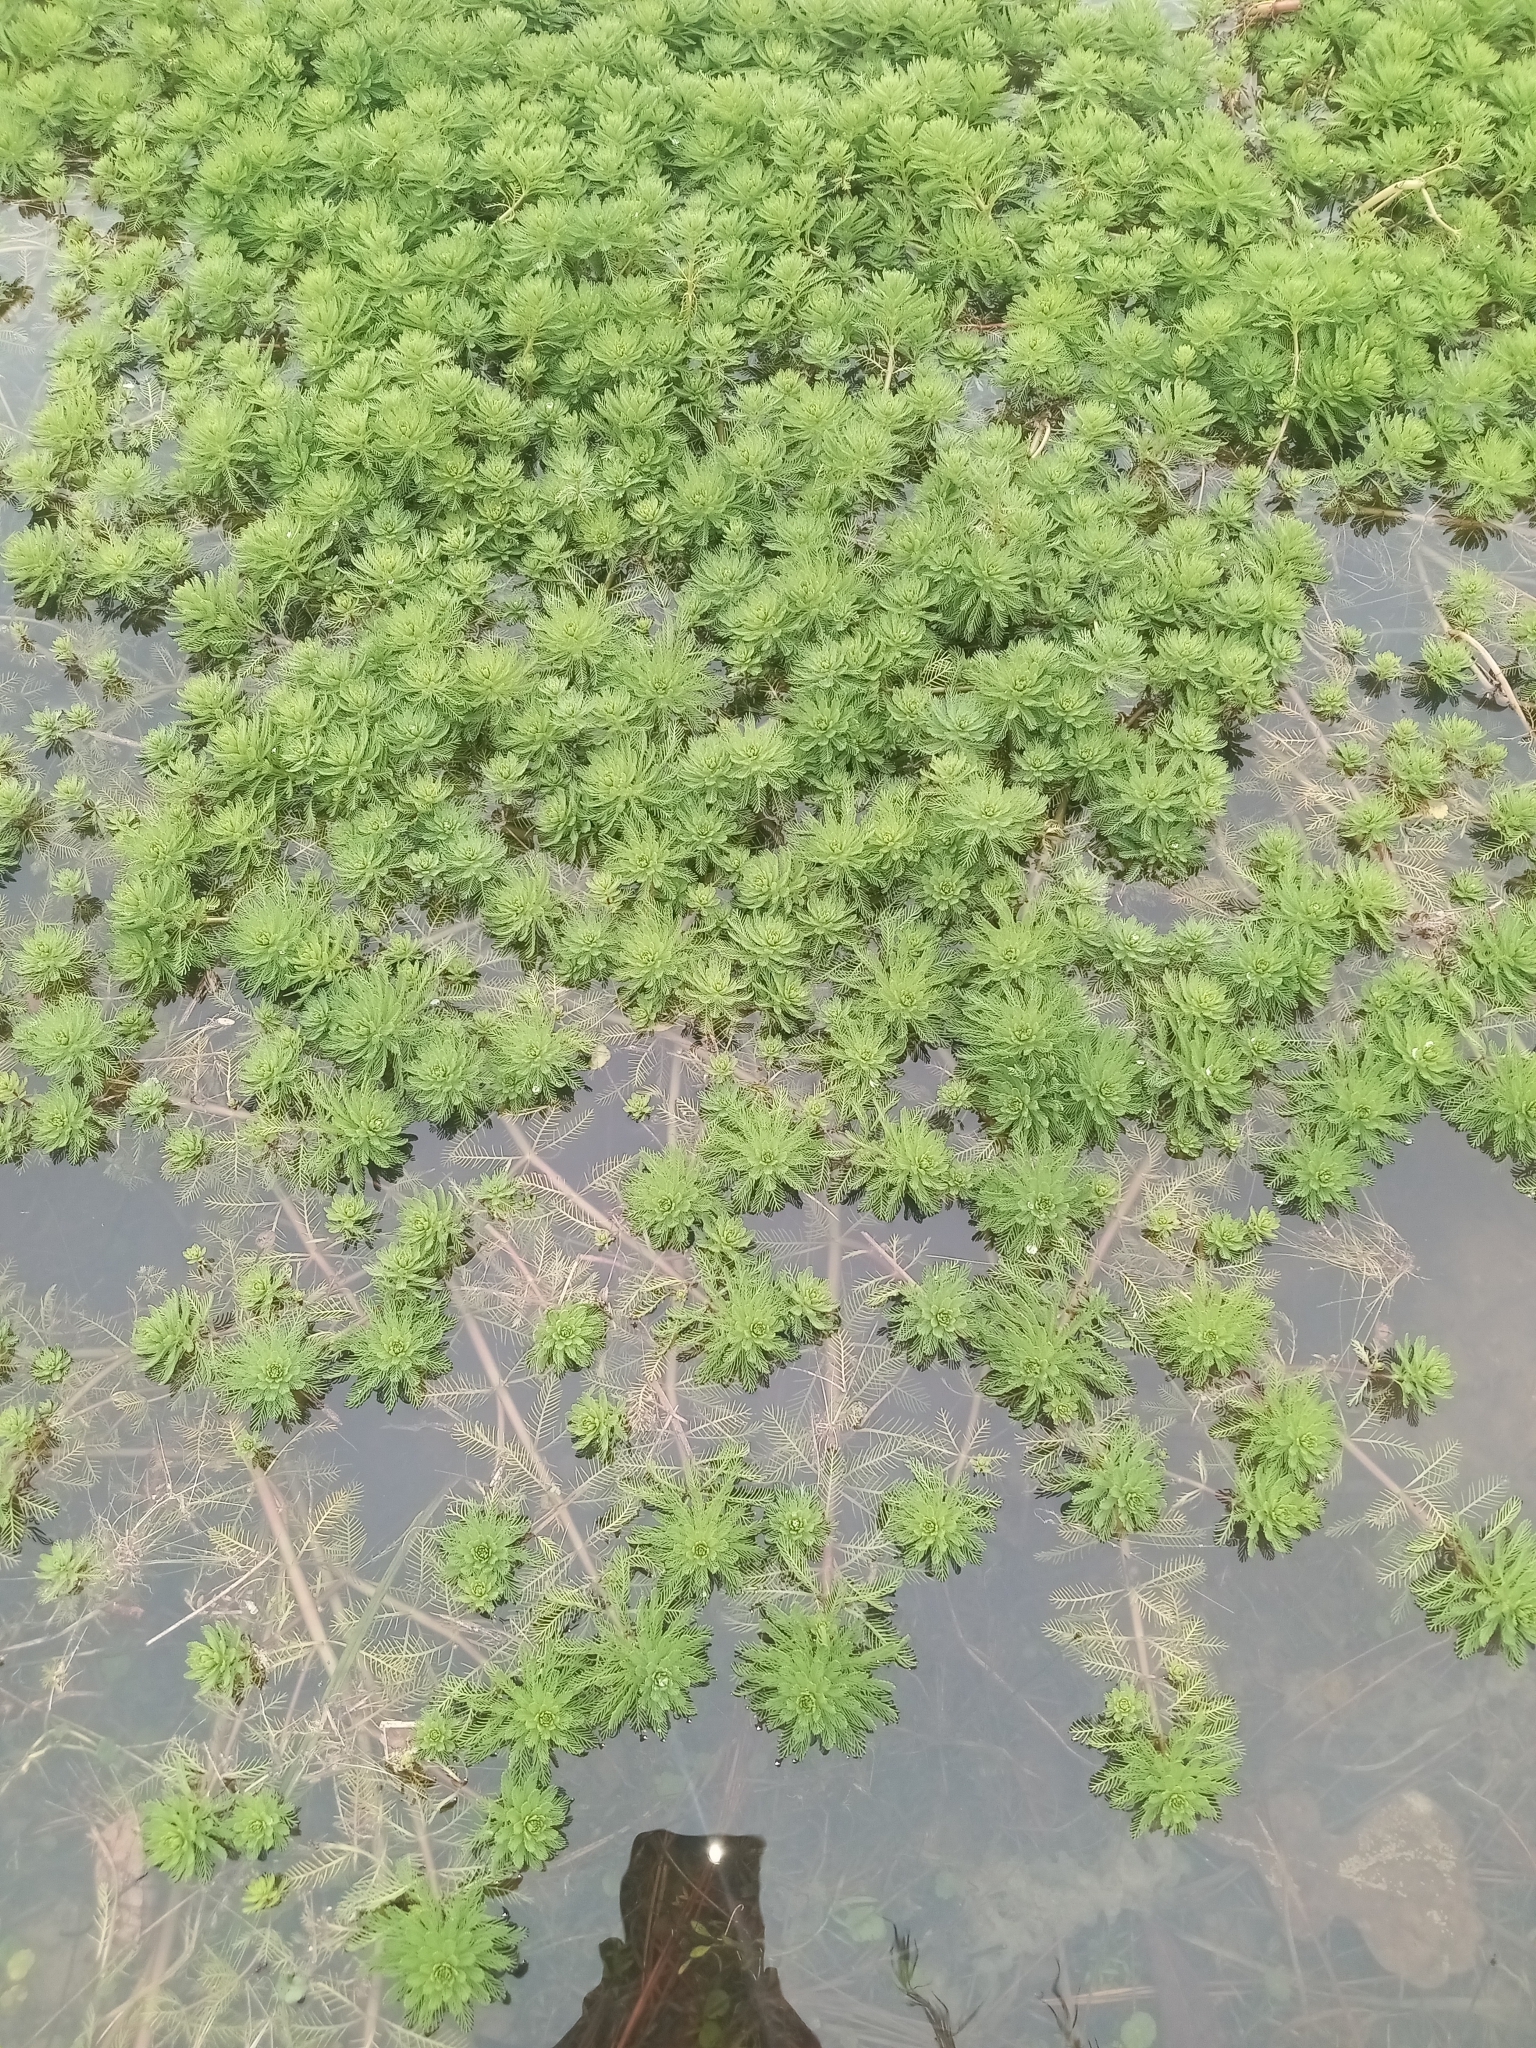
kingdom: Plantae
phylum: Tracheophyta
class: Magnoliopsida
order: Saxifragales
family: Haloragaceae
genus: Myriophyllum
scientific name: Myriophyllum aquaticum
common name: Parrot's feather
